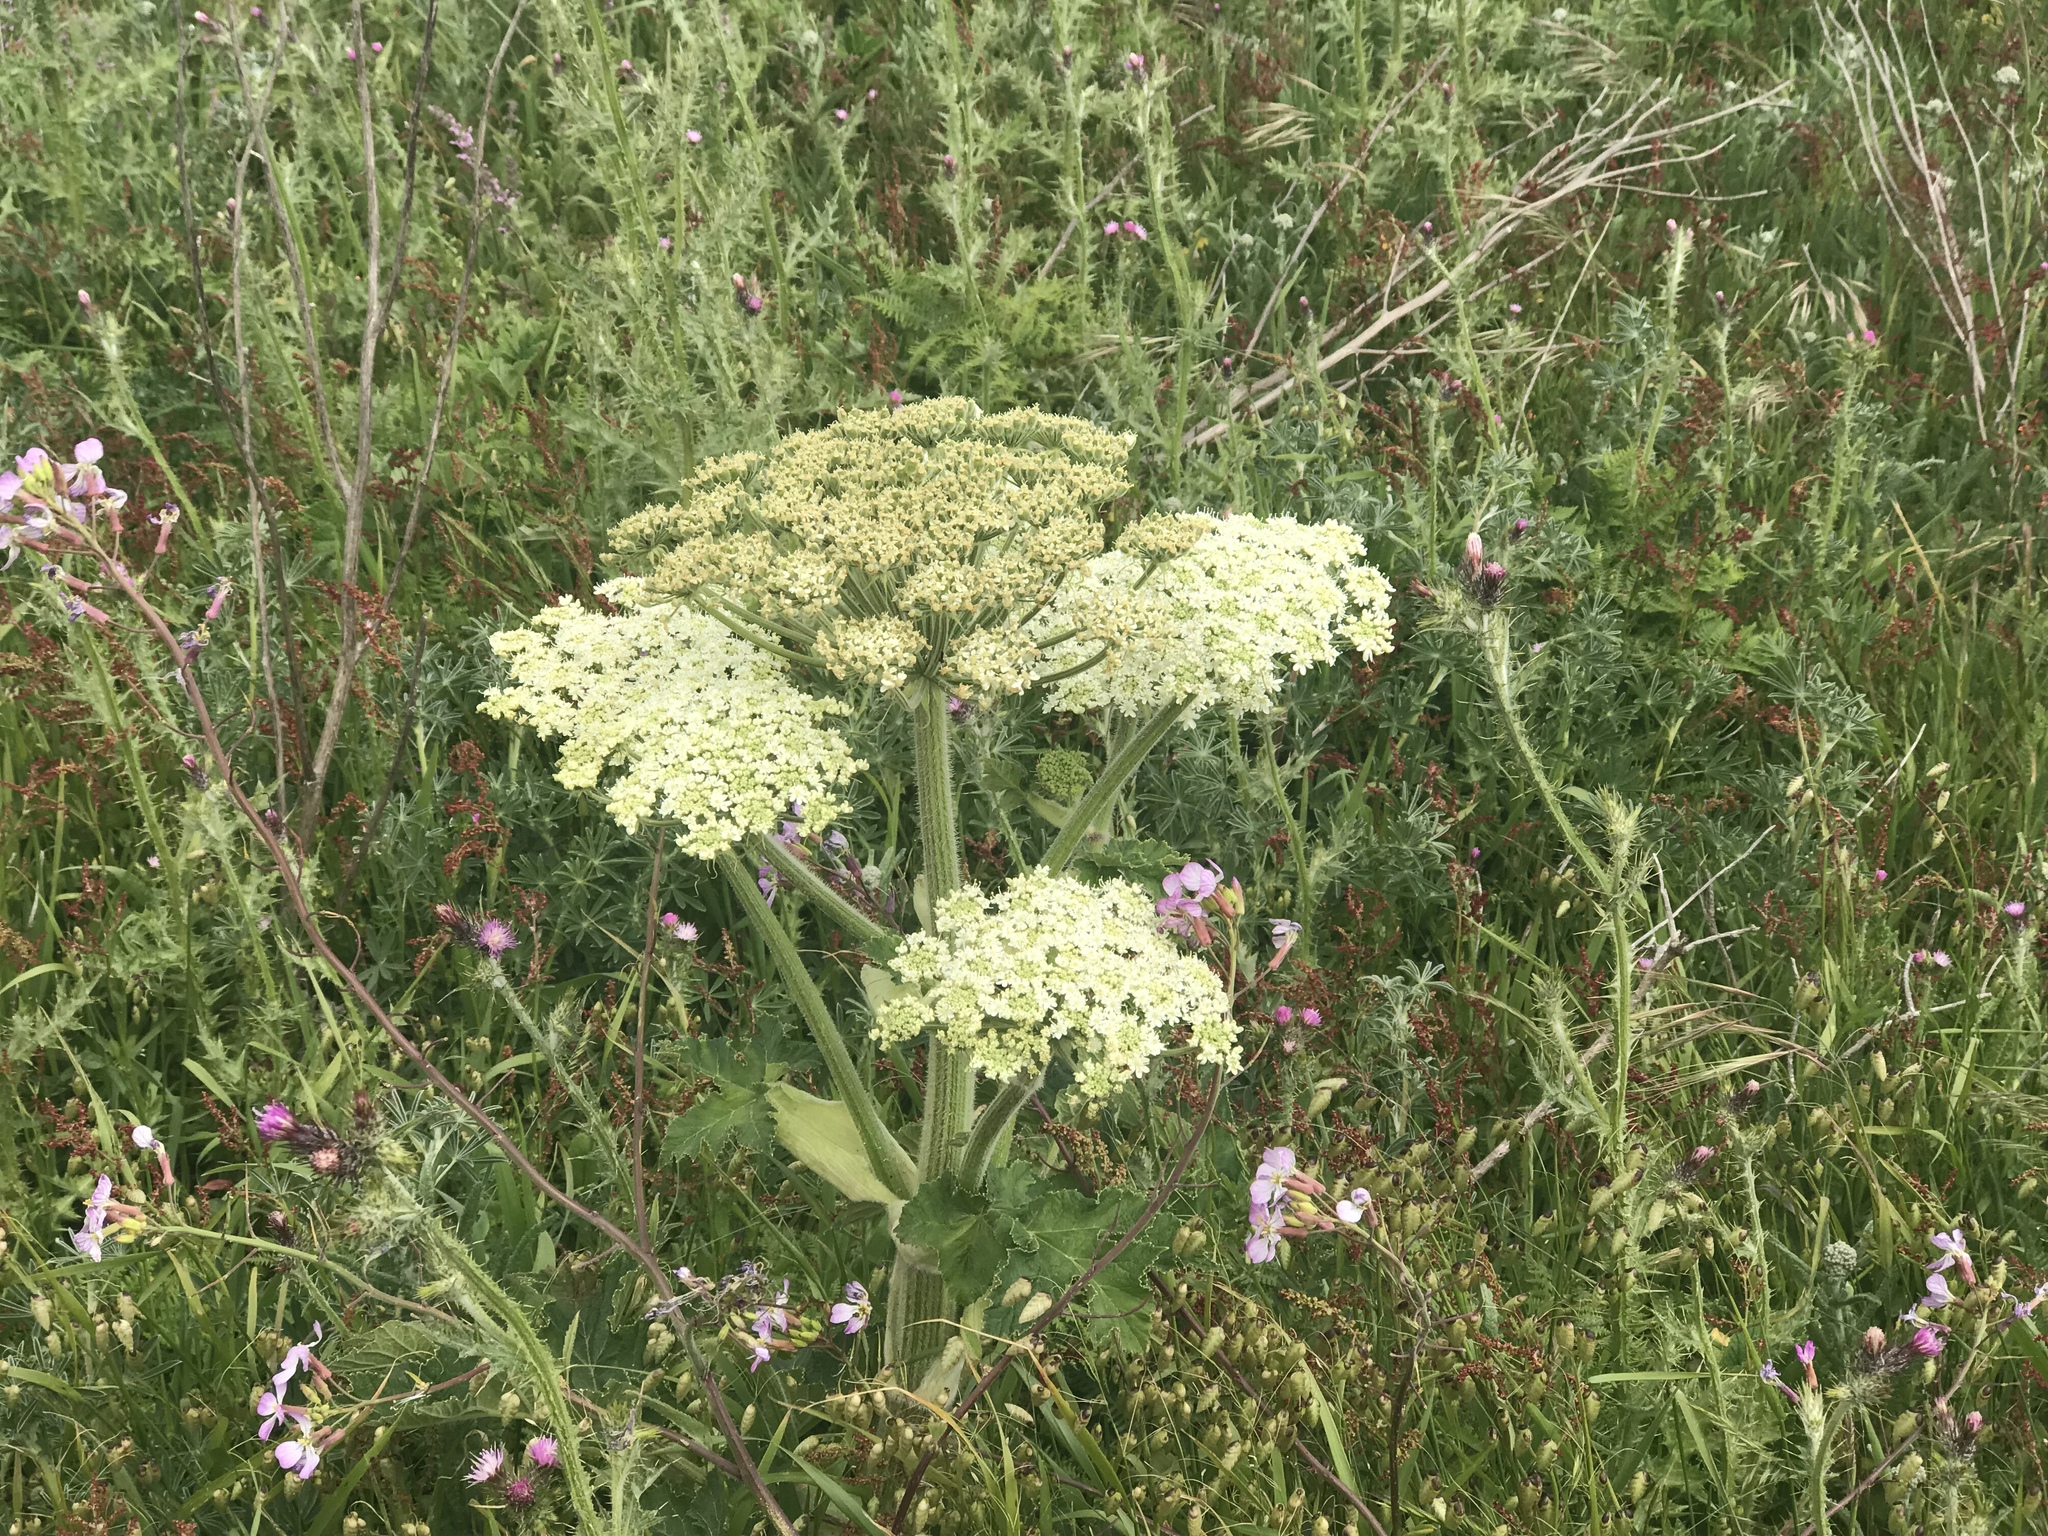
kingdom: Plantae
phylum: Tracheophyta
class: Magnoliopsida
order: Apiales
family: Apiaceae
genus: Heracleum
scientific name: Heracleum maximum
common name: American cow parsnip
